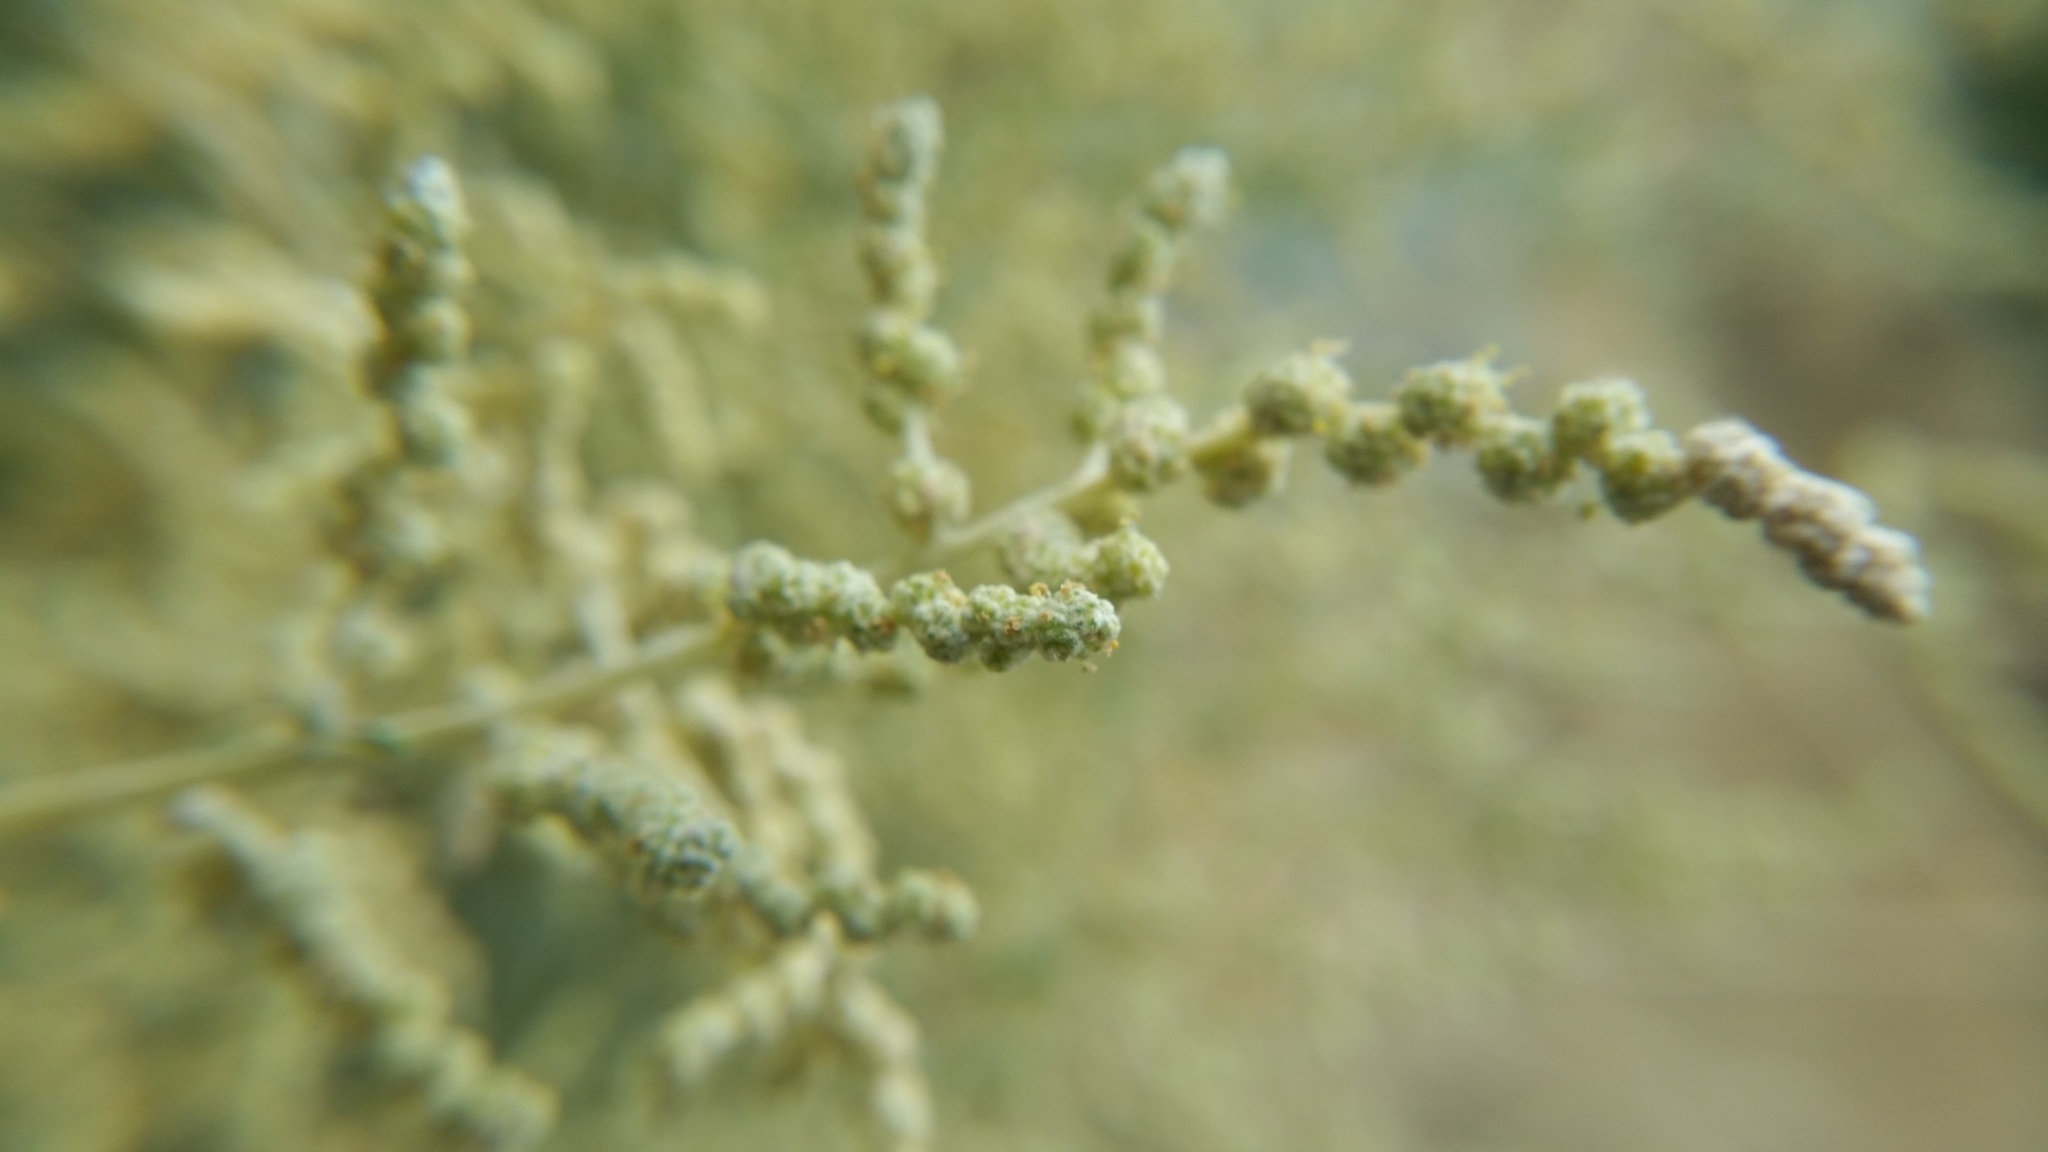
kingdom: Plantae
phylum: Tracheophyta
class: Magnoliopsida
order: Caryophyllales
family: Amaranthaceae
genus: Atriplex
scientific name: Atriplex canescens
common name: Four-wing saltbush
